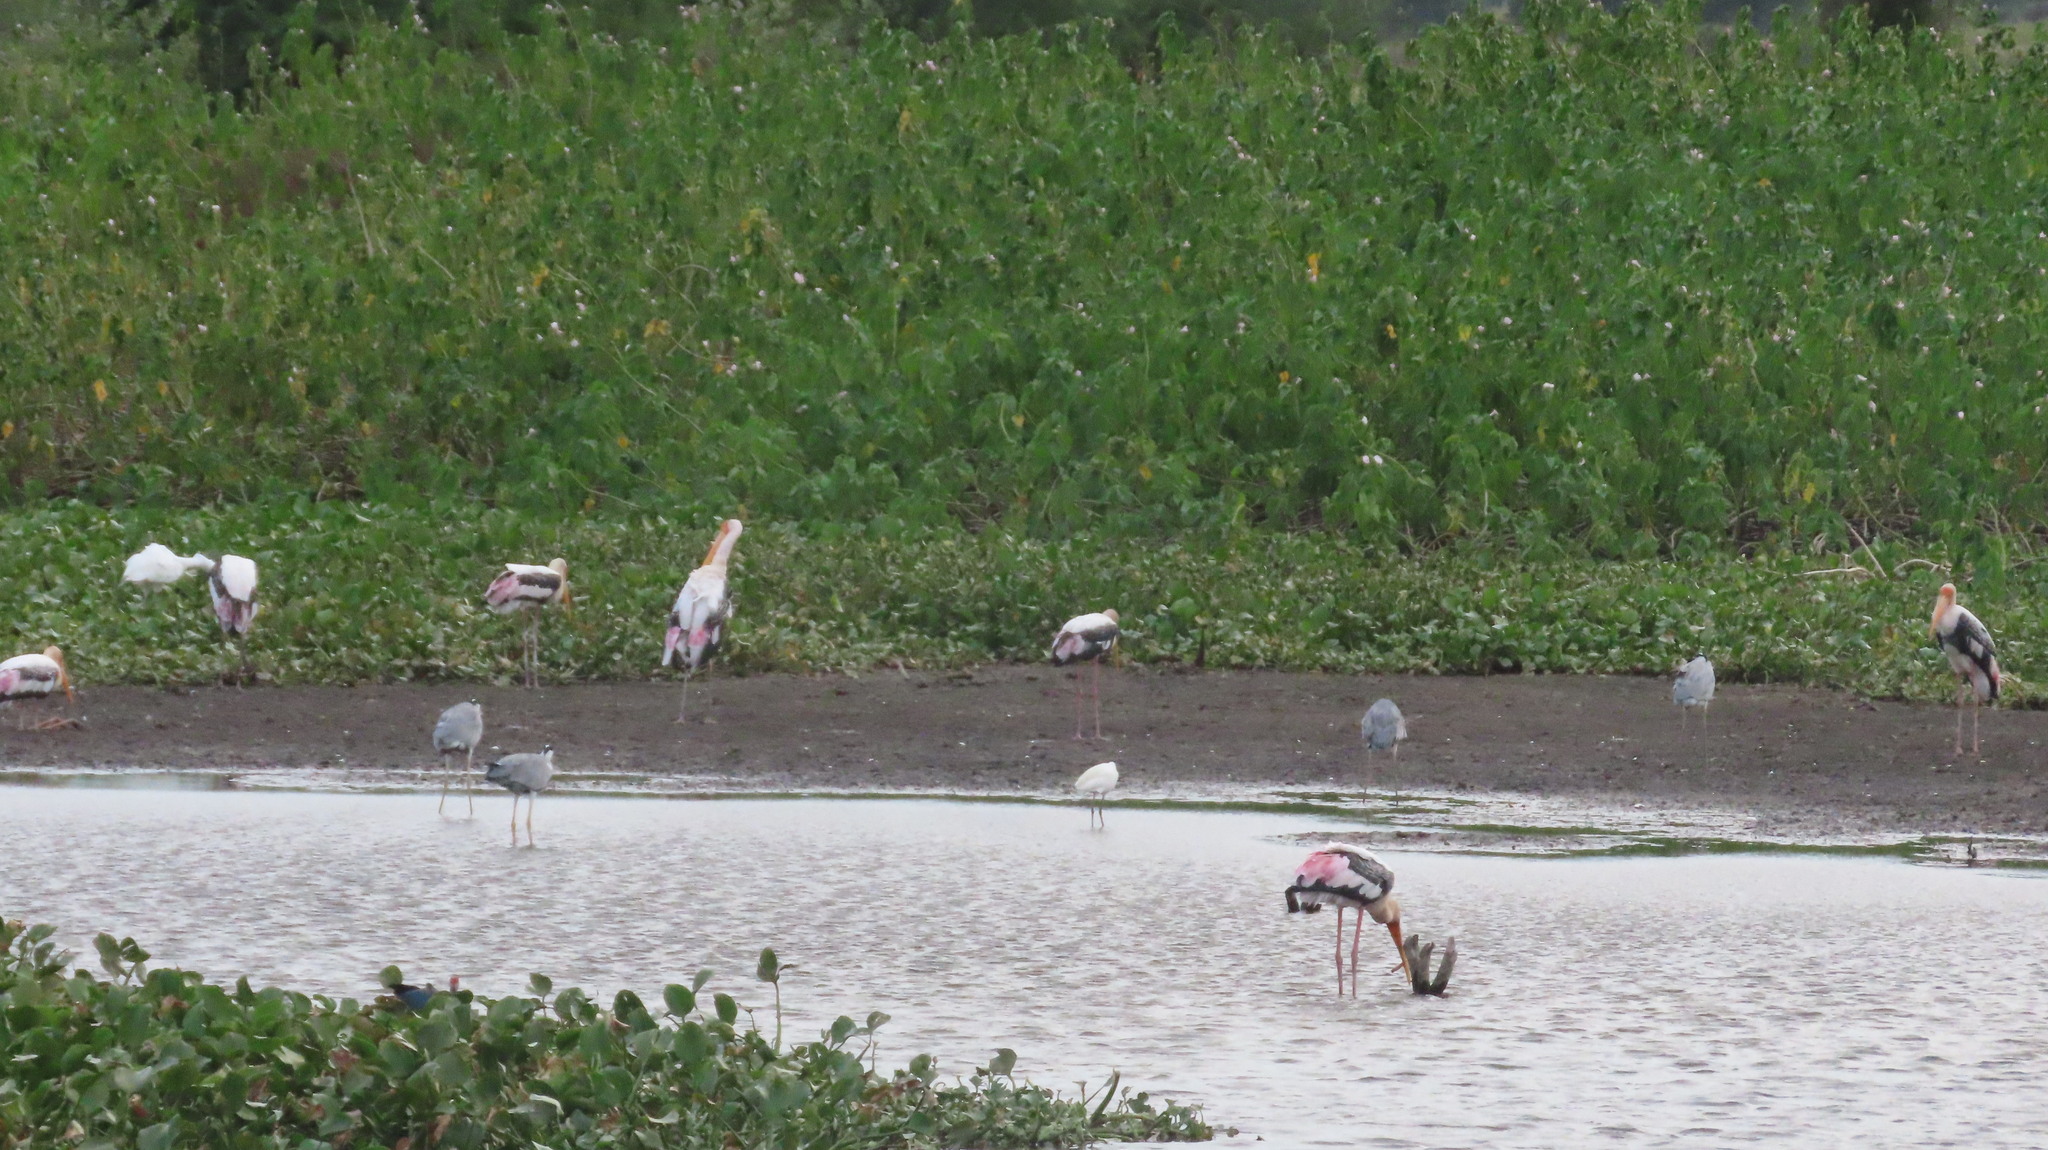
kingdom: Animalia
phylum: Chordata
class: Aves
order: Ciconiiformes
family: Ciconiidae
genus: Mycteria
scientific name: Mycteria leucocephala
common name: Painted stork
